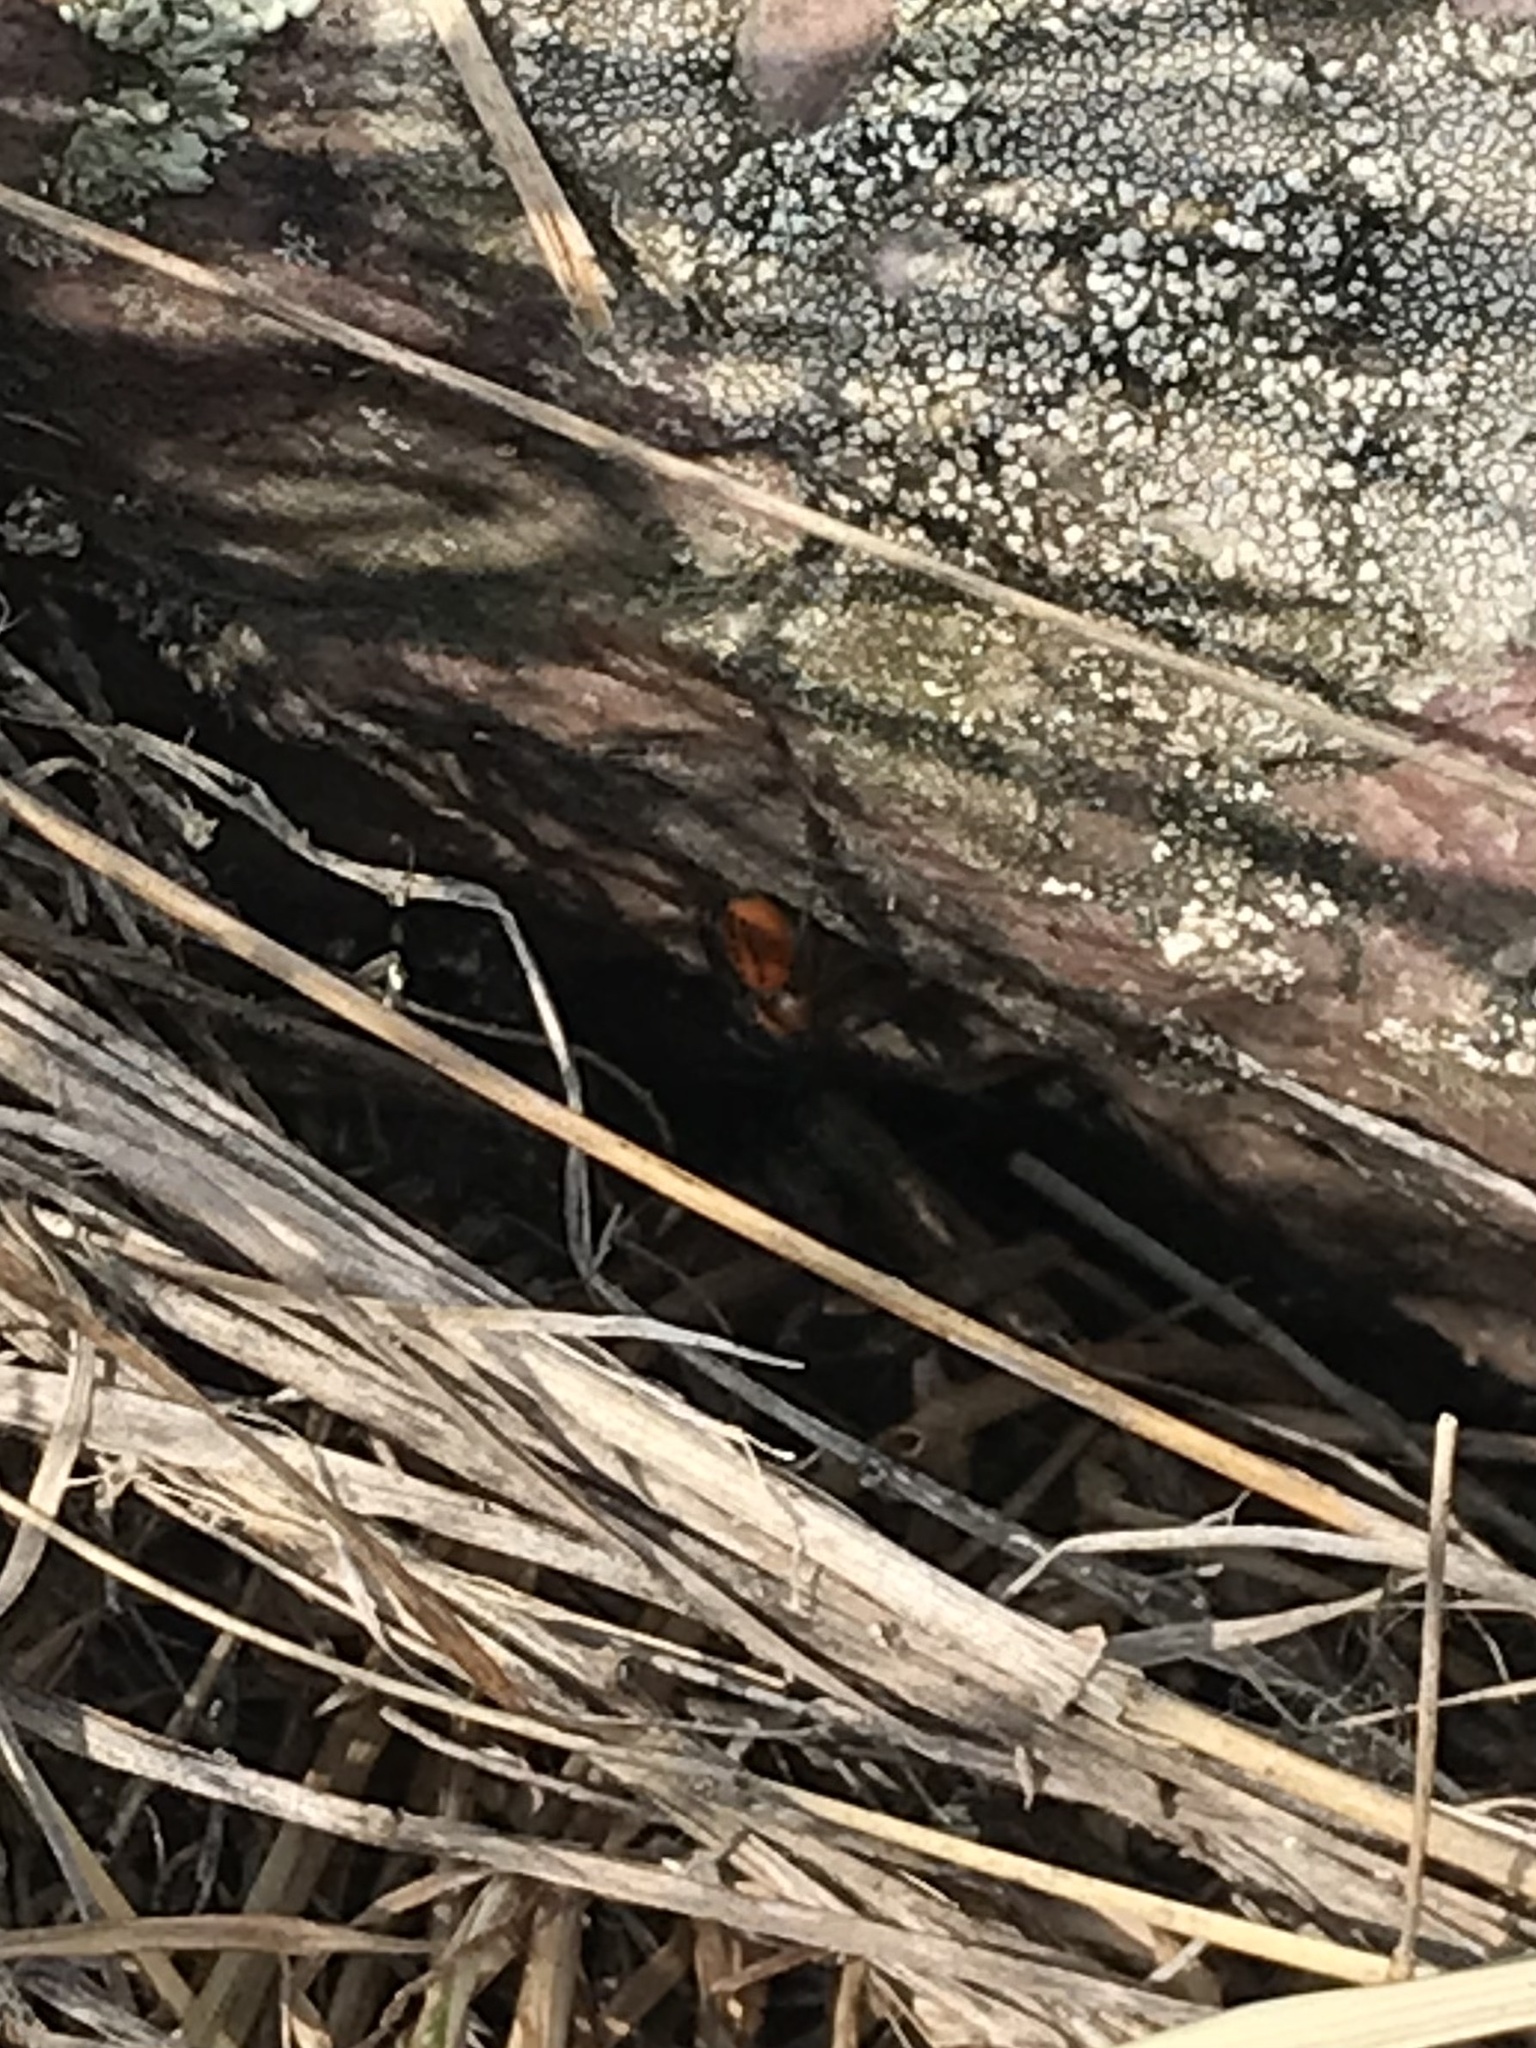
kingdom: Animalia
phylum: Arthropoda
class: Arachnida
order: Araneae
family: Salticidae
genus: Phidippus
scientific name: Phidippus pius
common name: Jumping spiders
